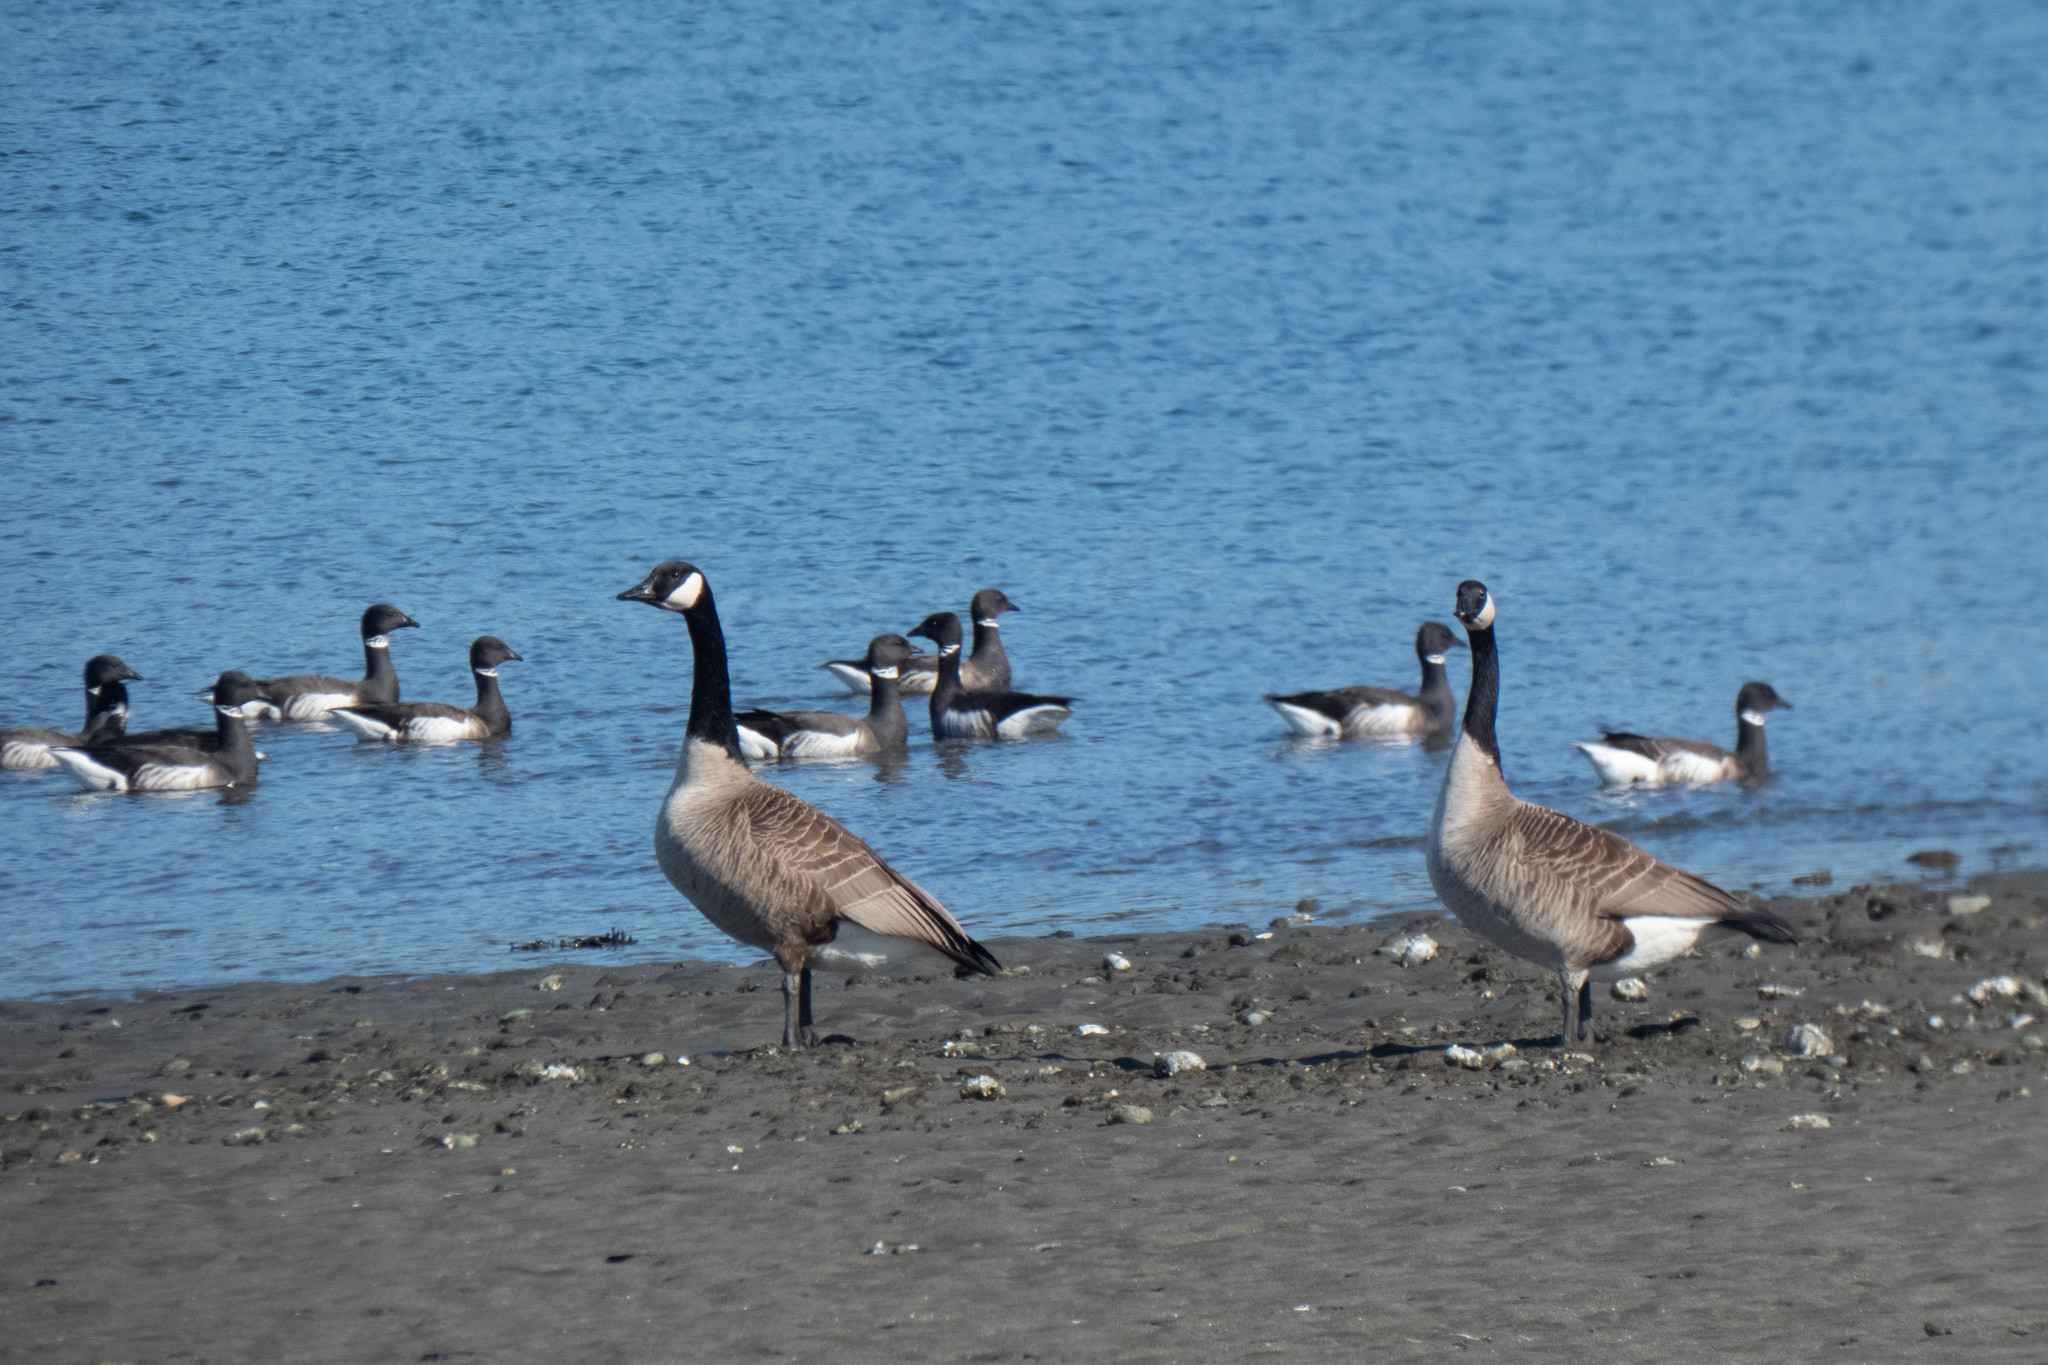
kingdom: Animalia
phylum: Chordata
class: Aves
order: Anseriformes
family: Anatidae
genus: Branta
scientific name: Branta canadensis
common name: Canada goose
